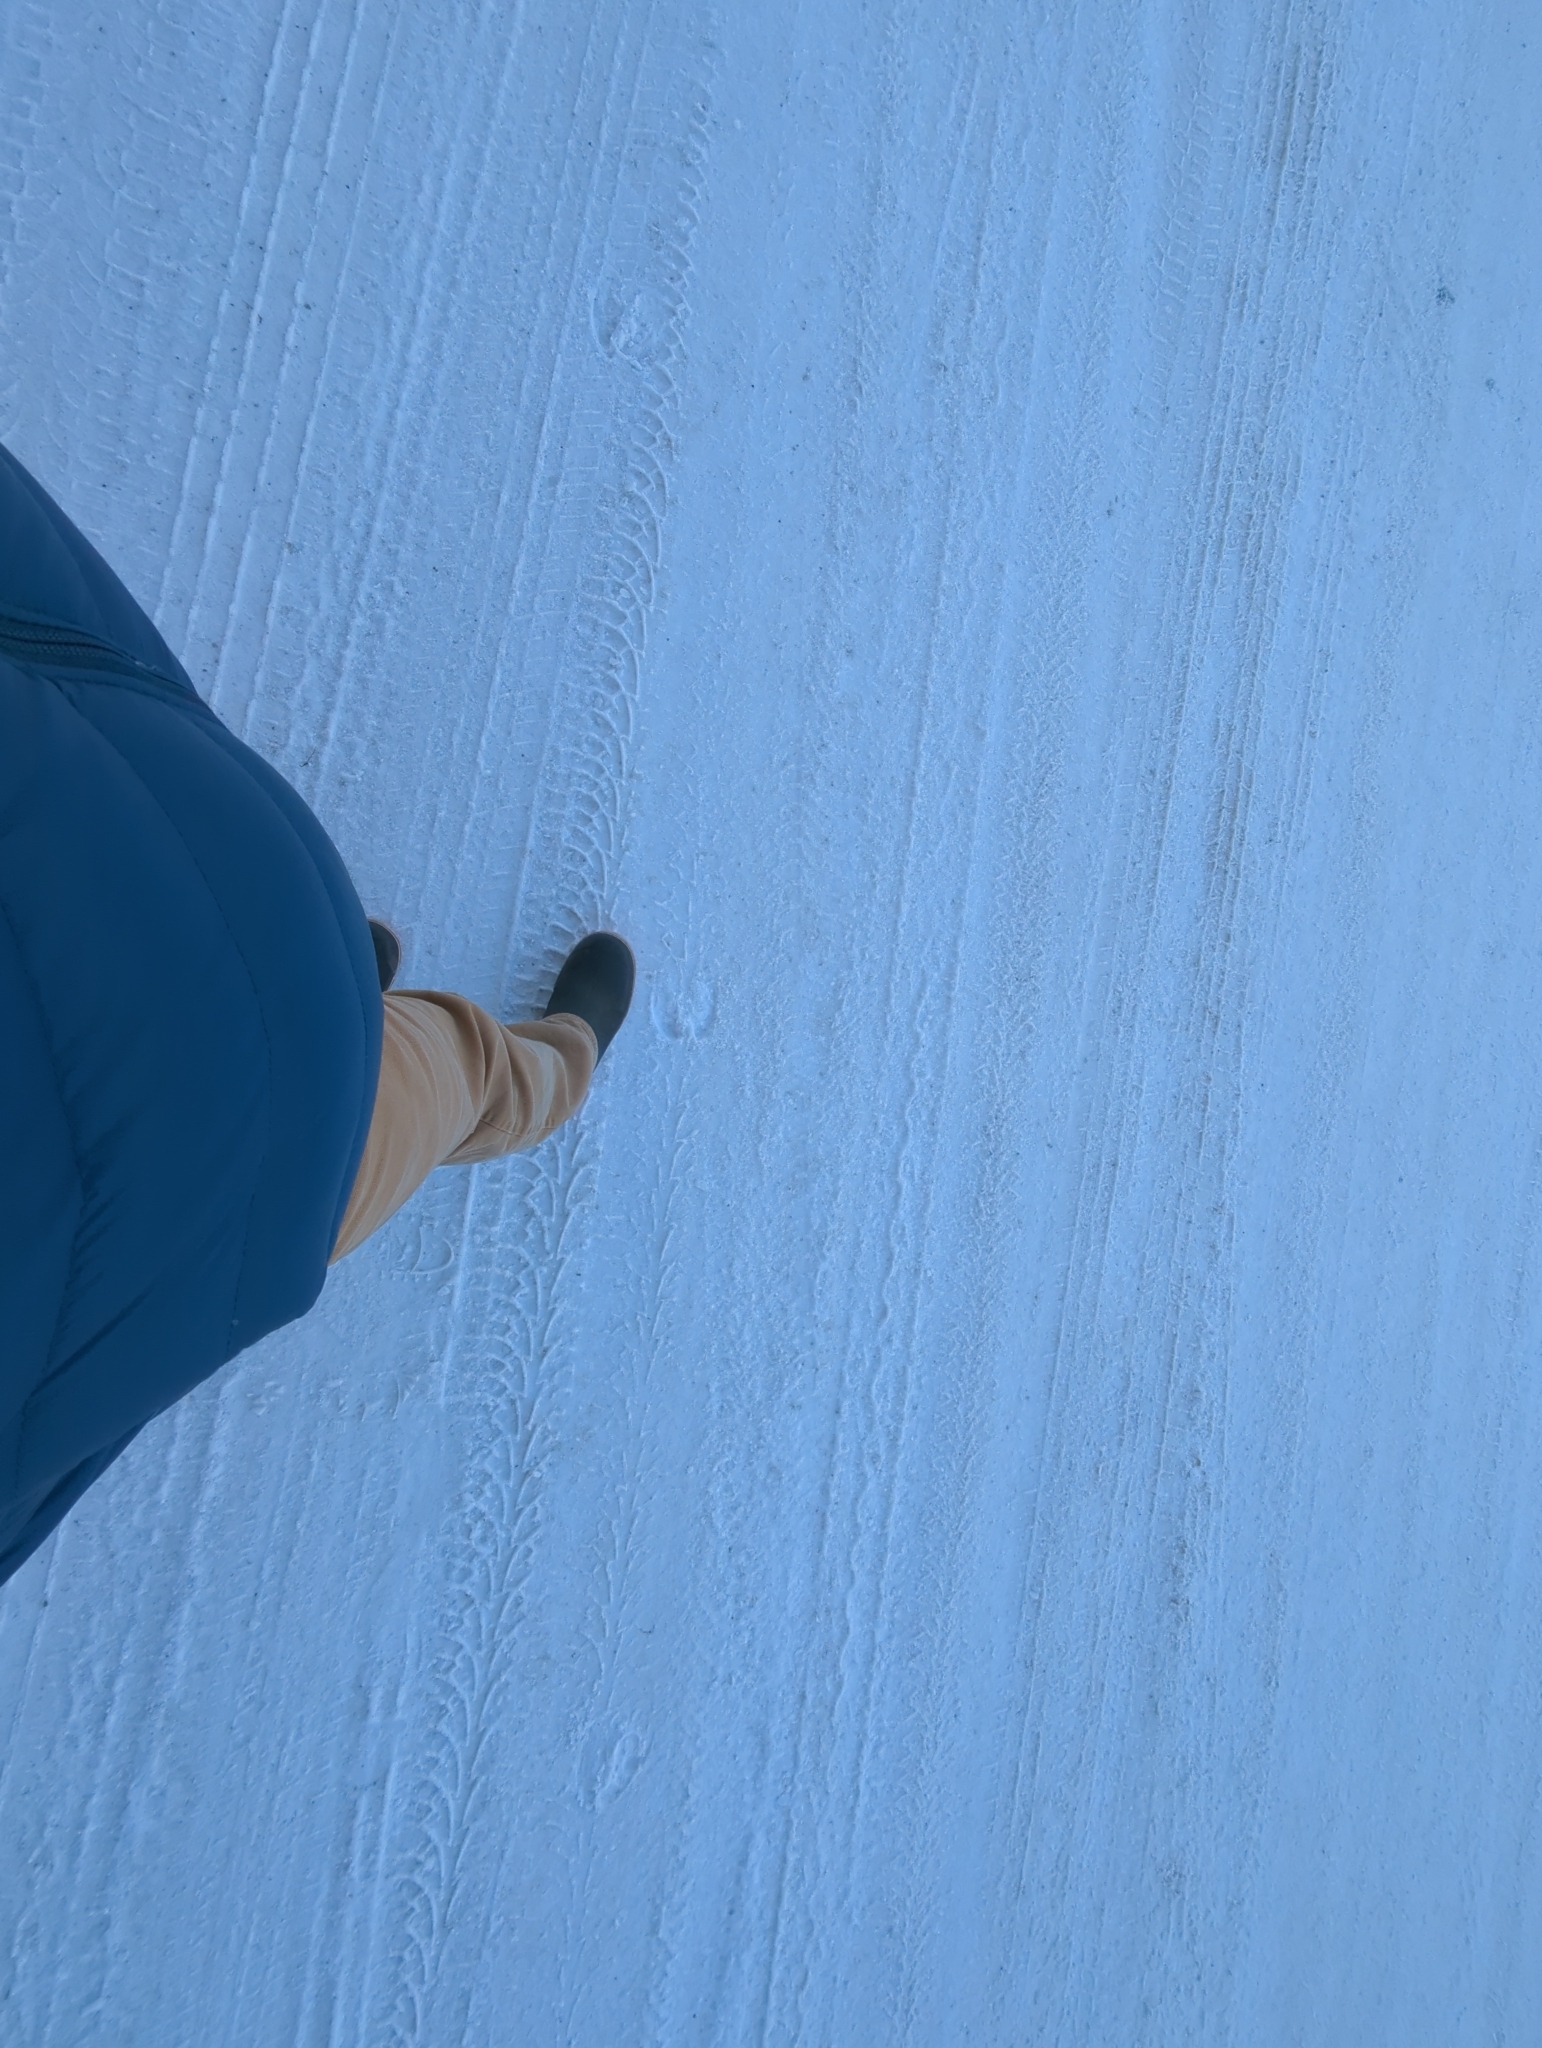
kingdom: Animalia
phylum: Chordata
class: Mammalia
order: Artiodactyla
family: Cervidae
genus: Alces
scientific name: Alces alces
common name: Moose
